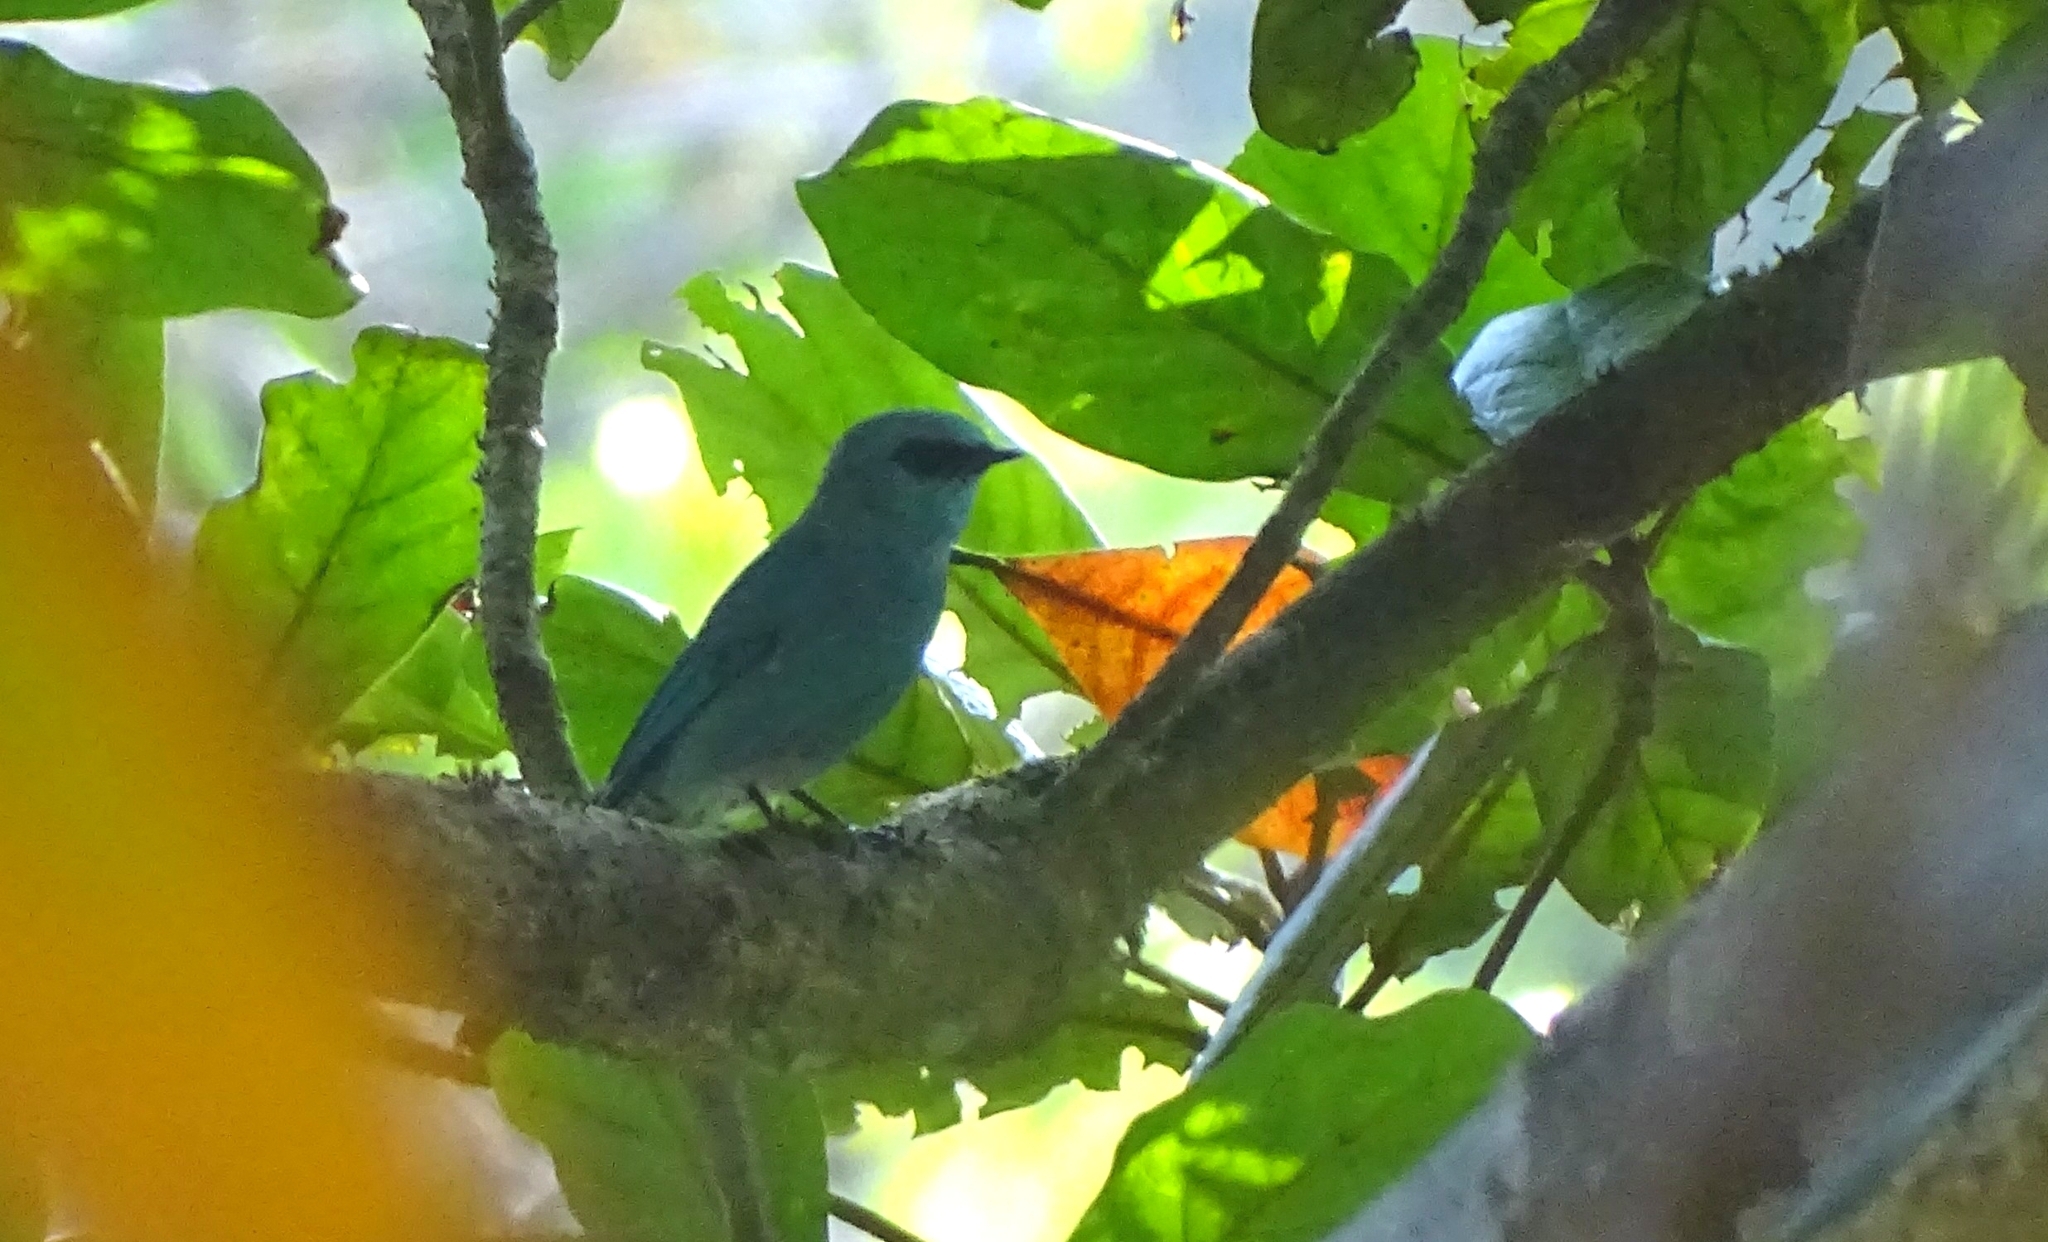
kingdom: Animalia
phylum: Chordata
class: Aves
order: Passeriformes
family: Muscicapidae
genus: Eumyias
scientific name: Eumyias thalassinus
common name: Verditer flycatcher
